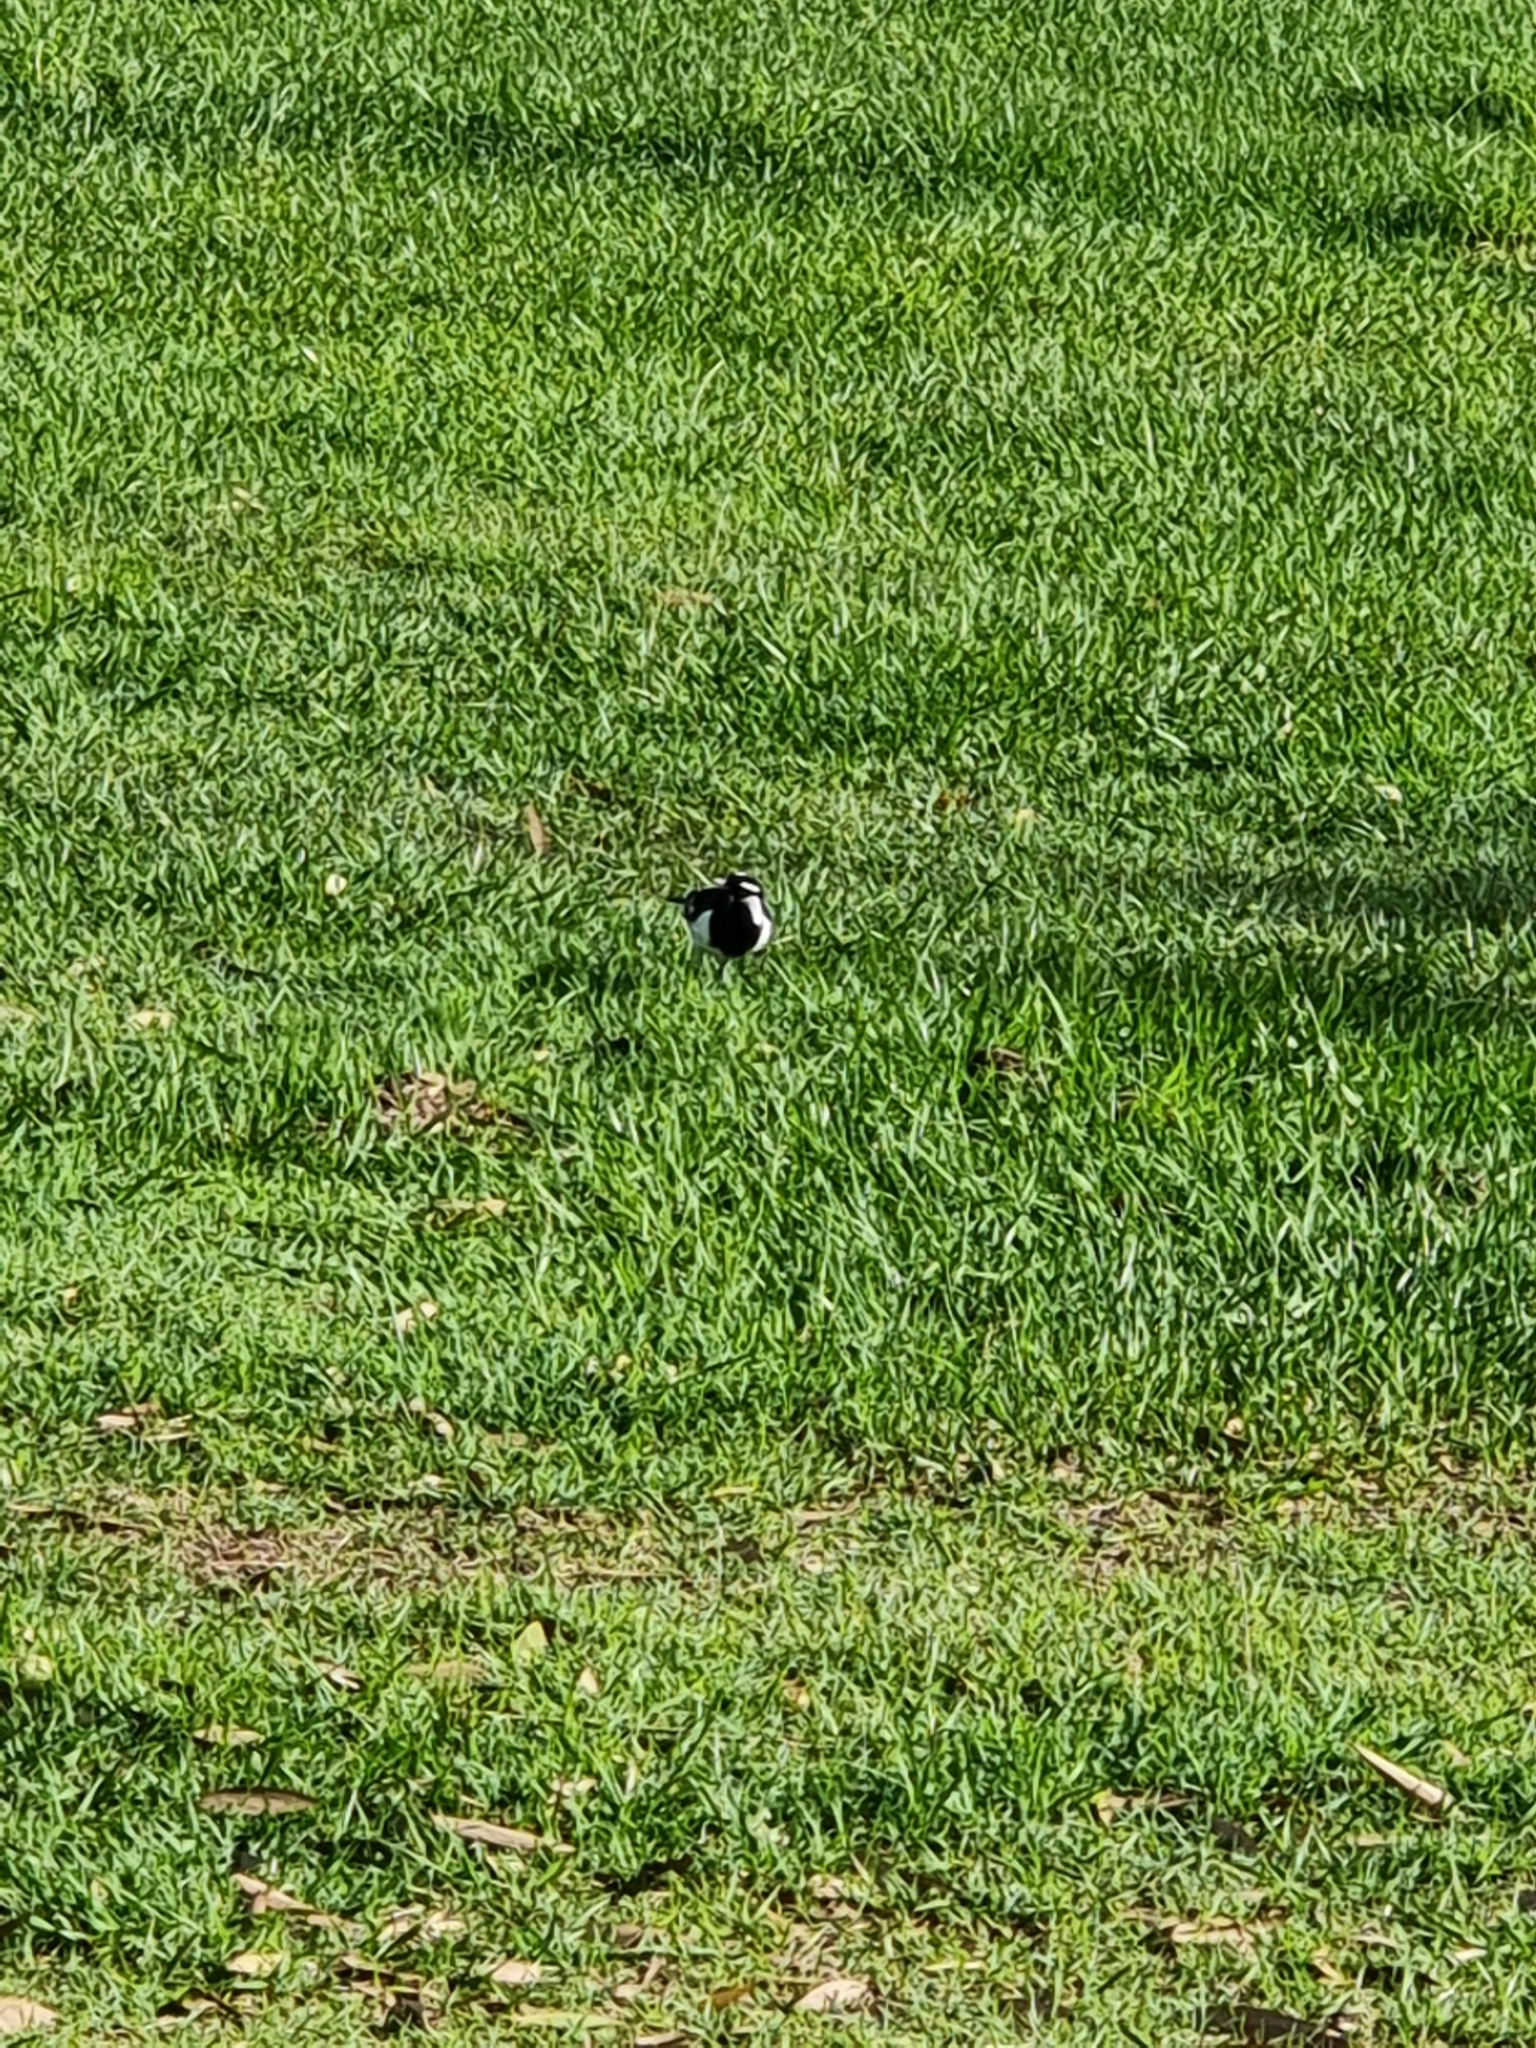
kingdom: Animalia
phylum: Chordata
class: Aves
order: Passeriformes
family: Monarchidae
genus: Grallina
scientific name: Grallina cyanoleuca
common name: Magpie-lark
